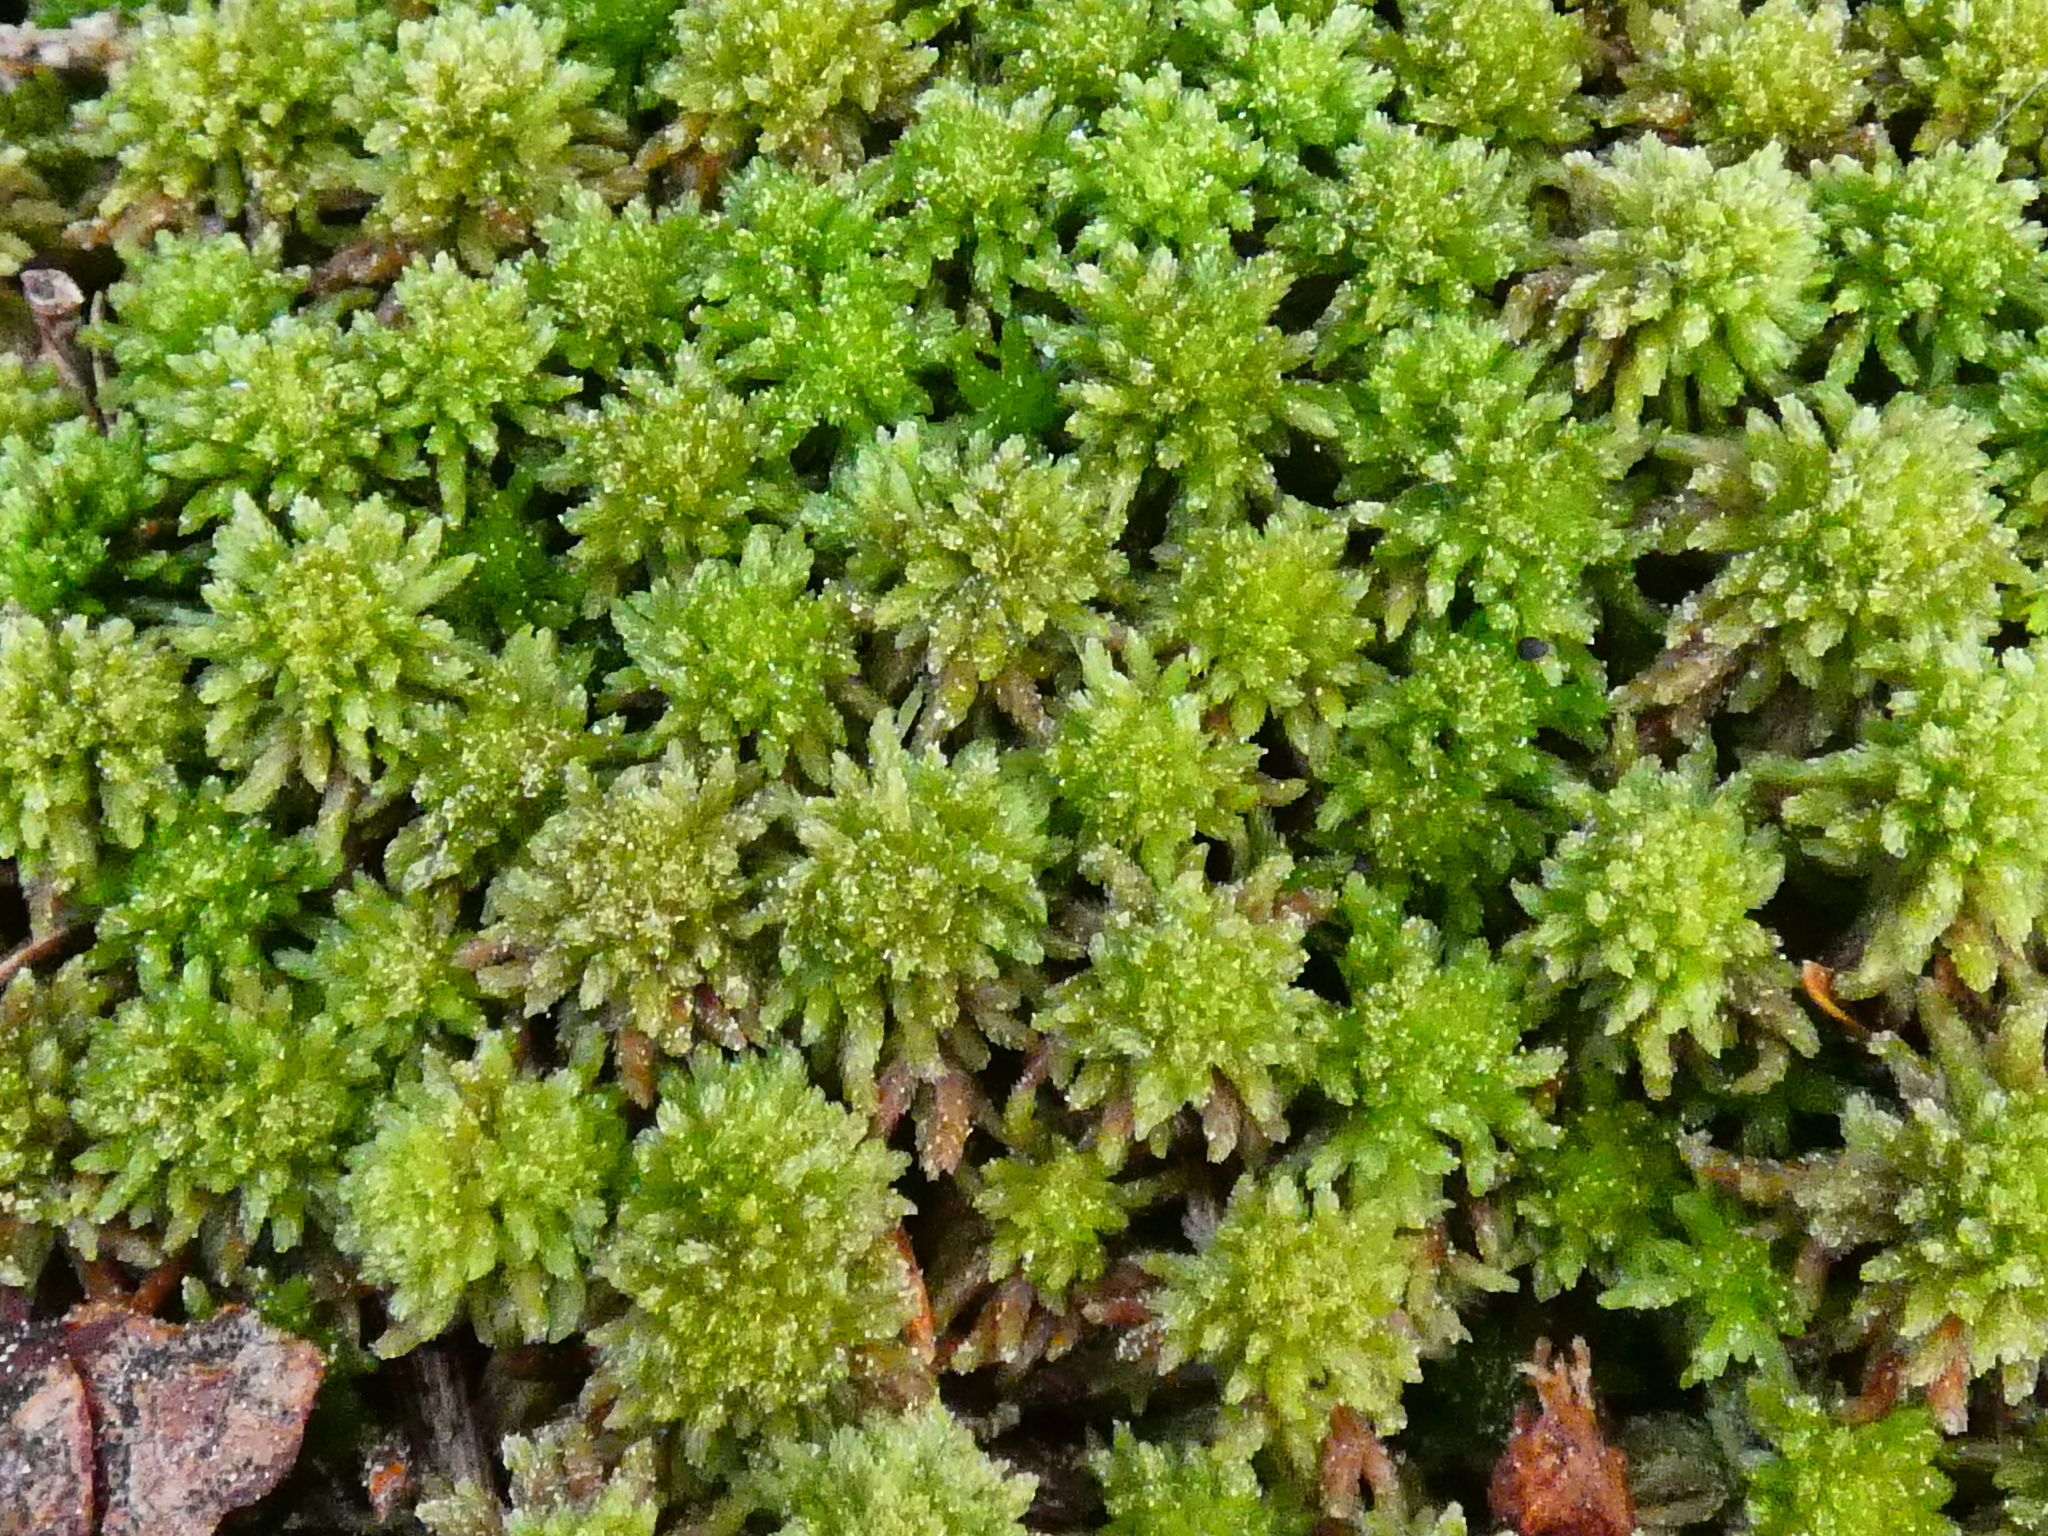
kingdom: Plantae
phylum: Bryophyta
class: Sphagnopsida
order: Sphagnales
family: Sphagnaceae
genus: Sphagnum
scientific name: Sphagnum capillifolium
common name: Small red peat moss
